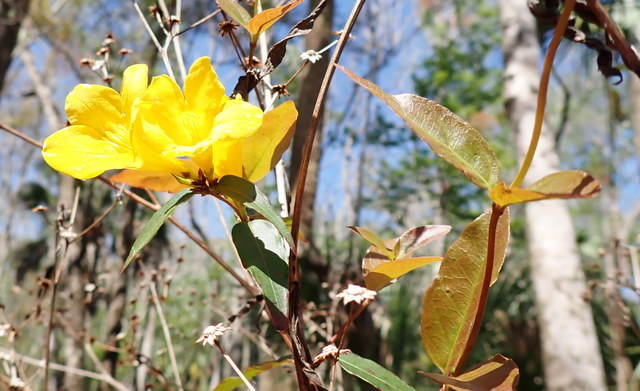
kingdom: Plantae
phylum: Tracheophyta
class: Magnoliopsida
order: Gentianales
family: Gelsemiaceae
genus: Gelsemium
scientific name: Gelsemium sempervirens
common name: Carolina-jasmine
